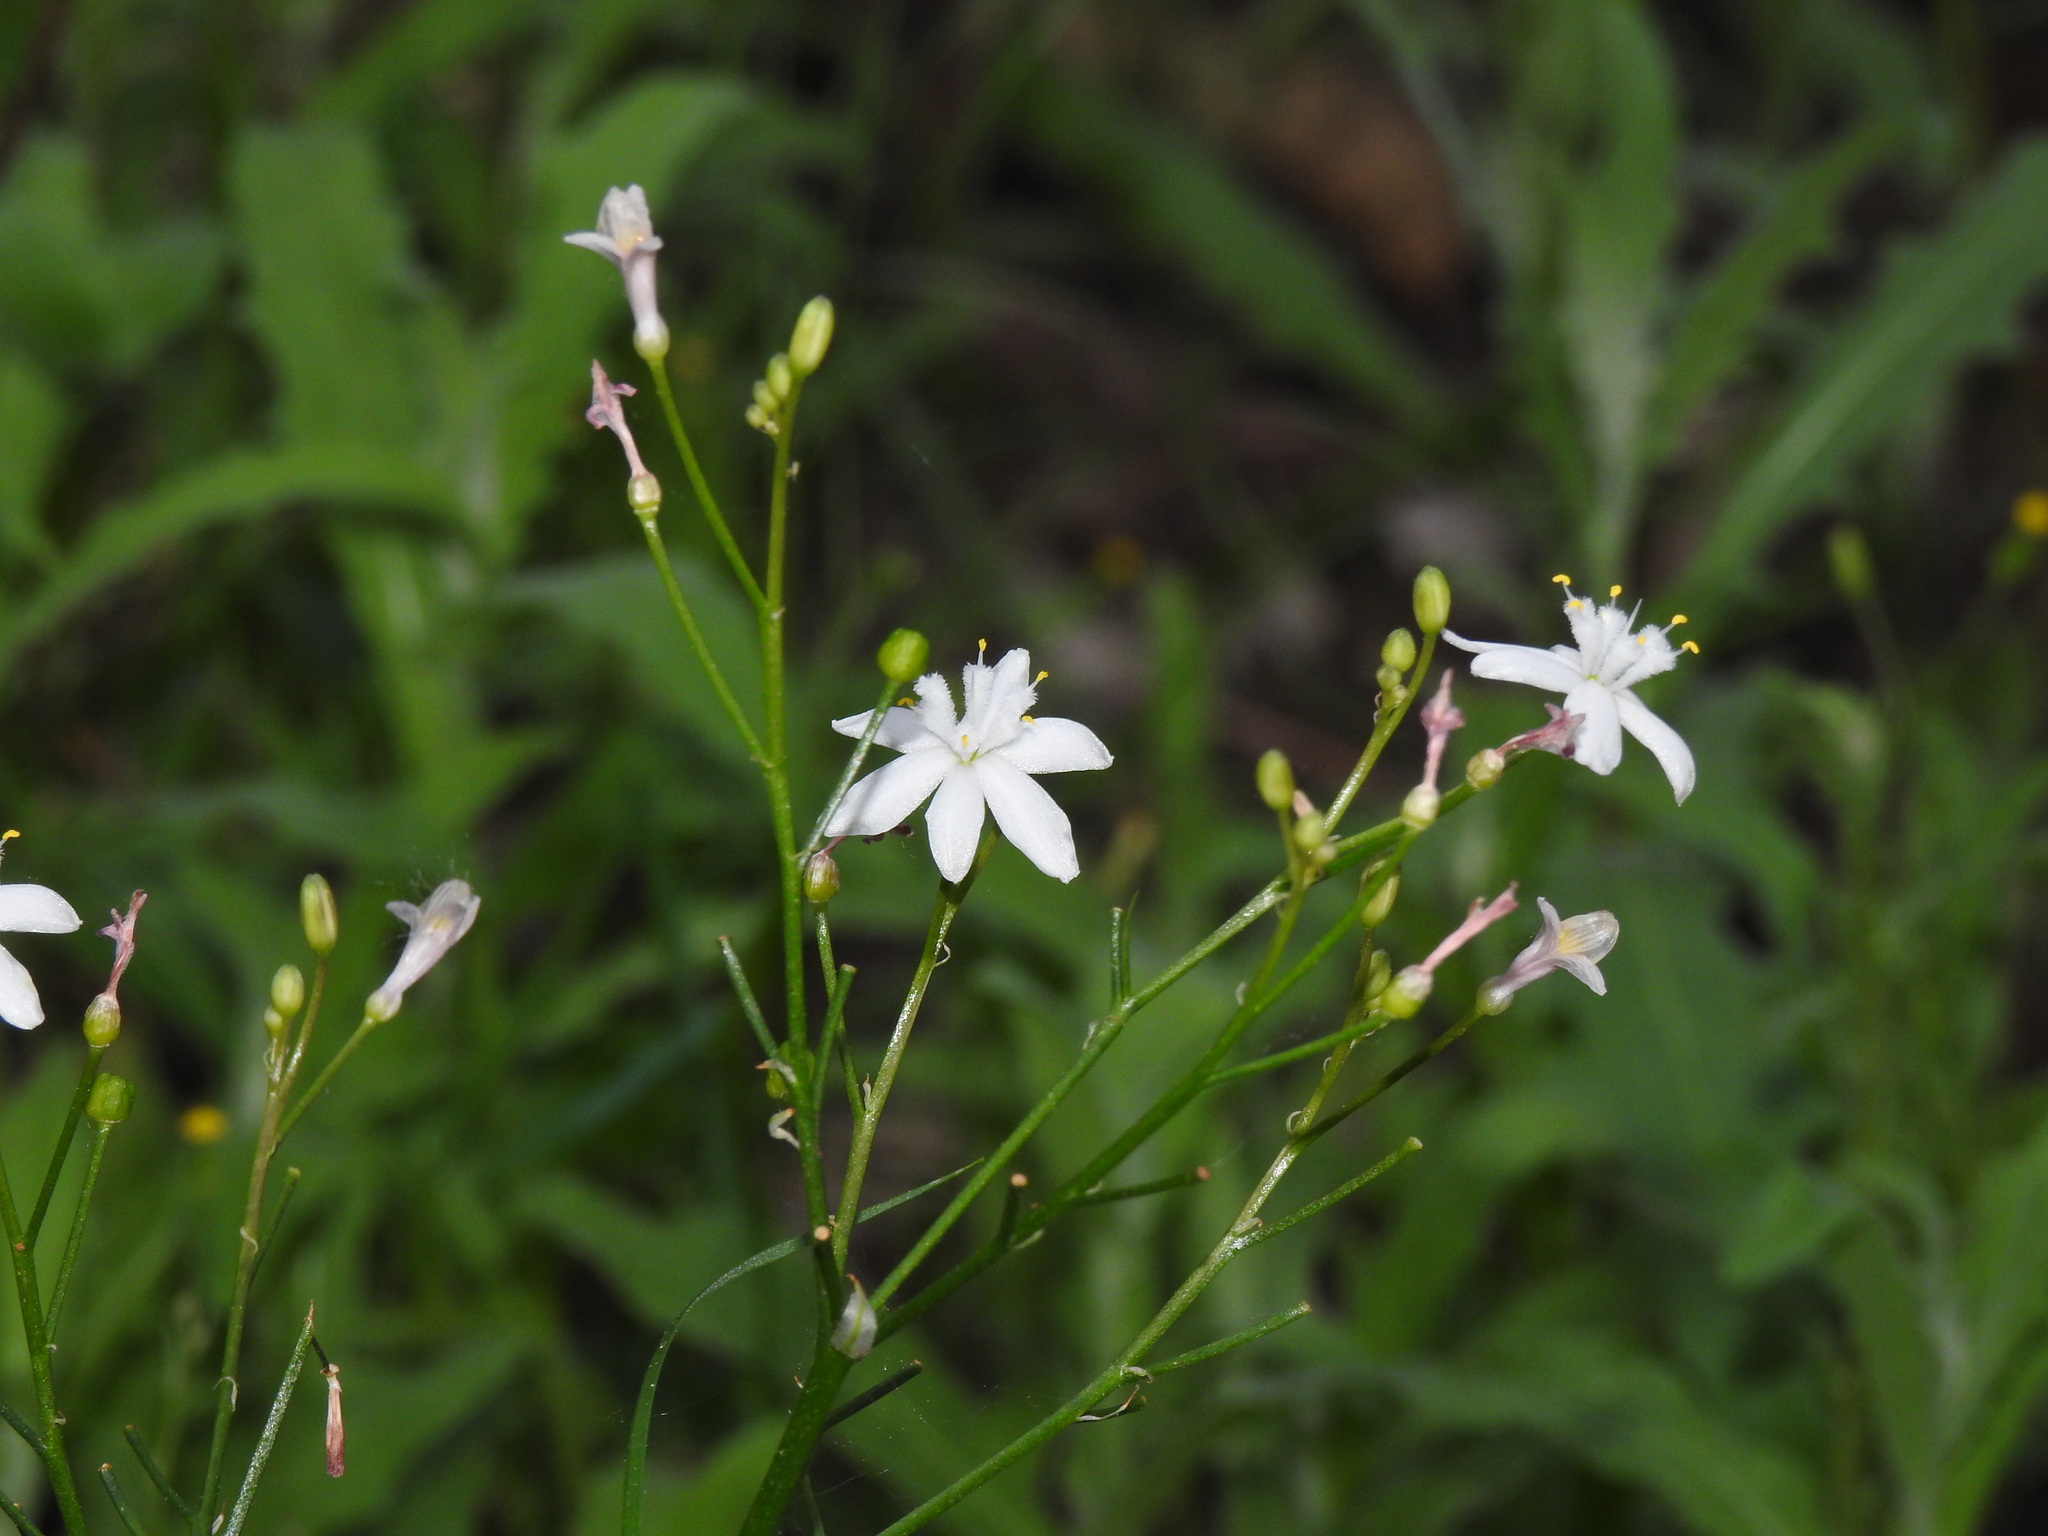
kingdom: Plantae
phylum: Tracheophyta
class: Liliopsida
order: Asparagales
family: Asphodelaceae
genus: Simethis
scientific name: Simethis mattiazzii
